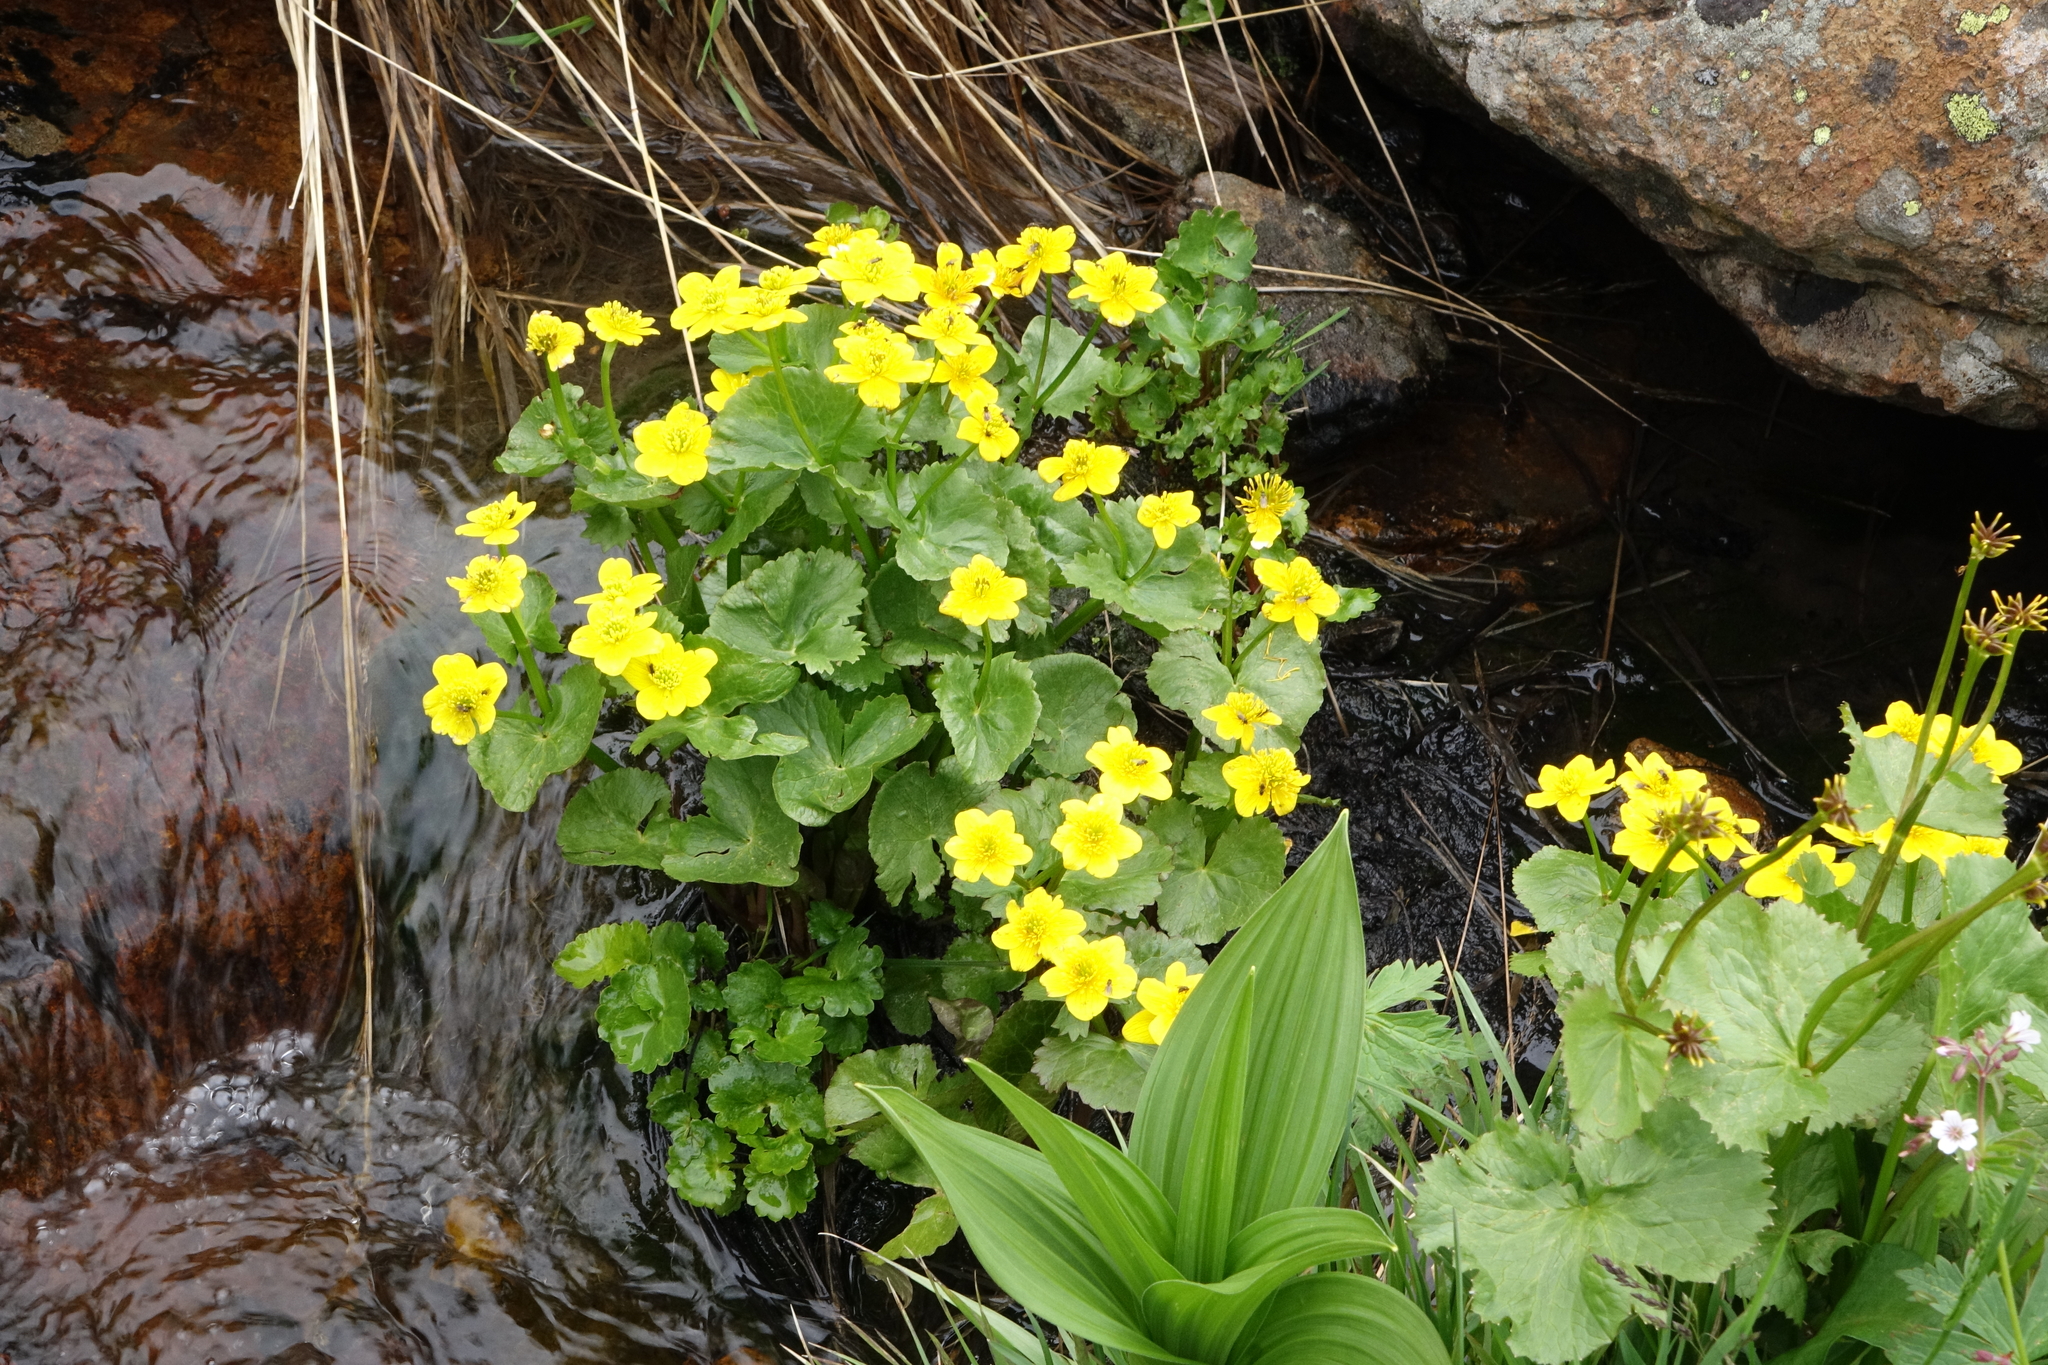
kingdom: Plantae
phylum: Tracheophyta
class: Magnoliopsida
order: Ranunculales
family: Ranunculaceae
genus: Caltha
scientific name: Caltha palustris
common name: Marsh marigold
